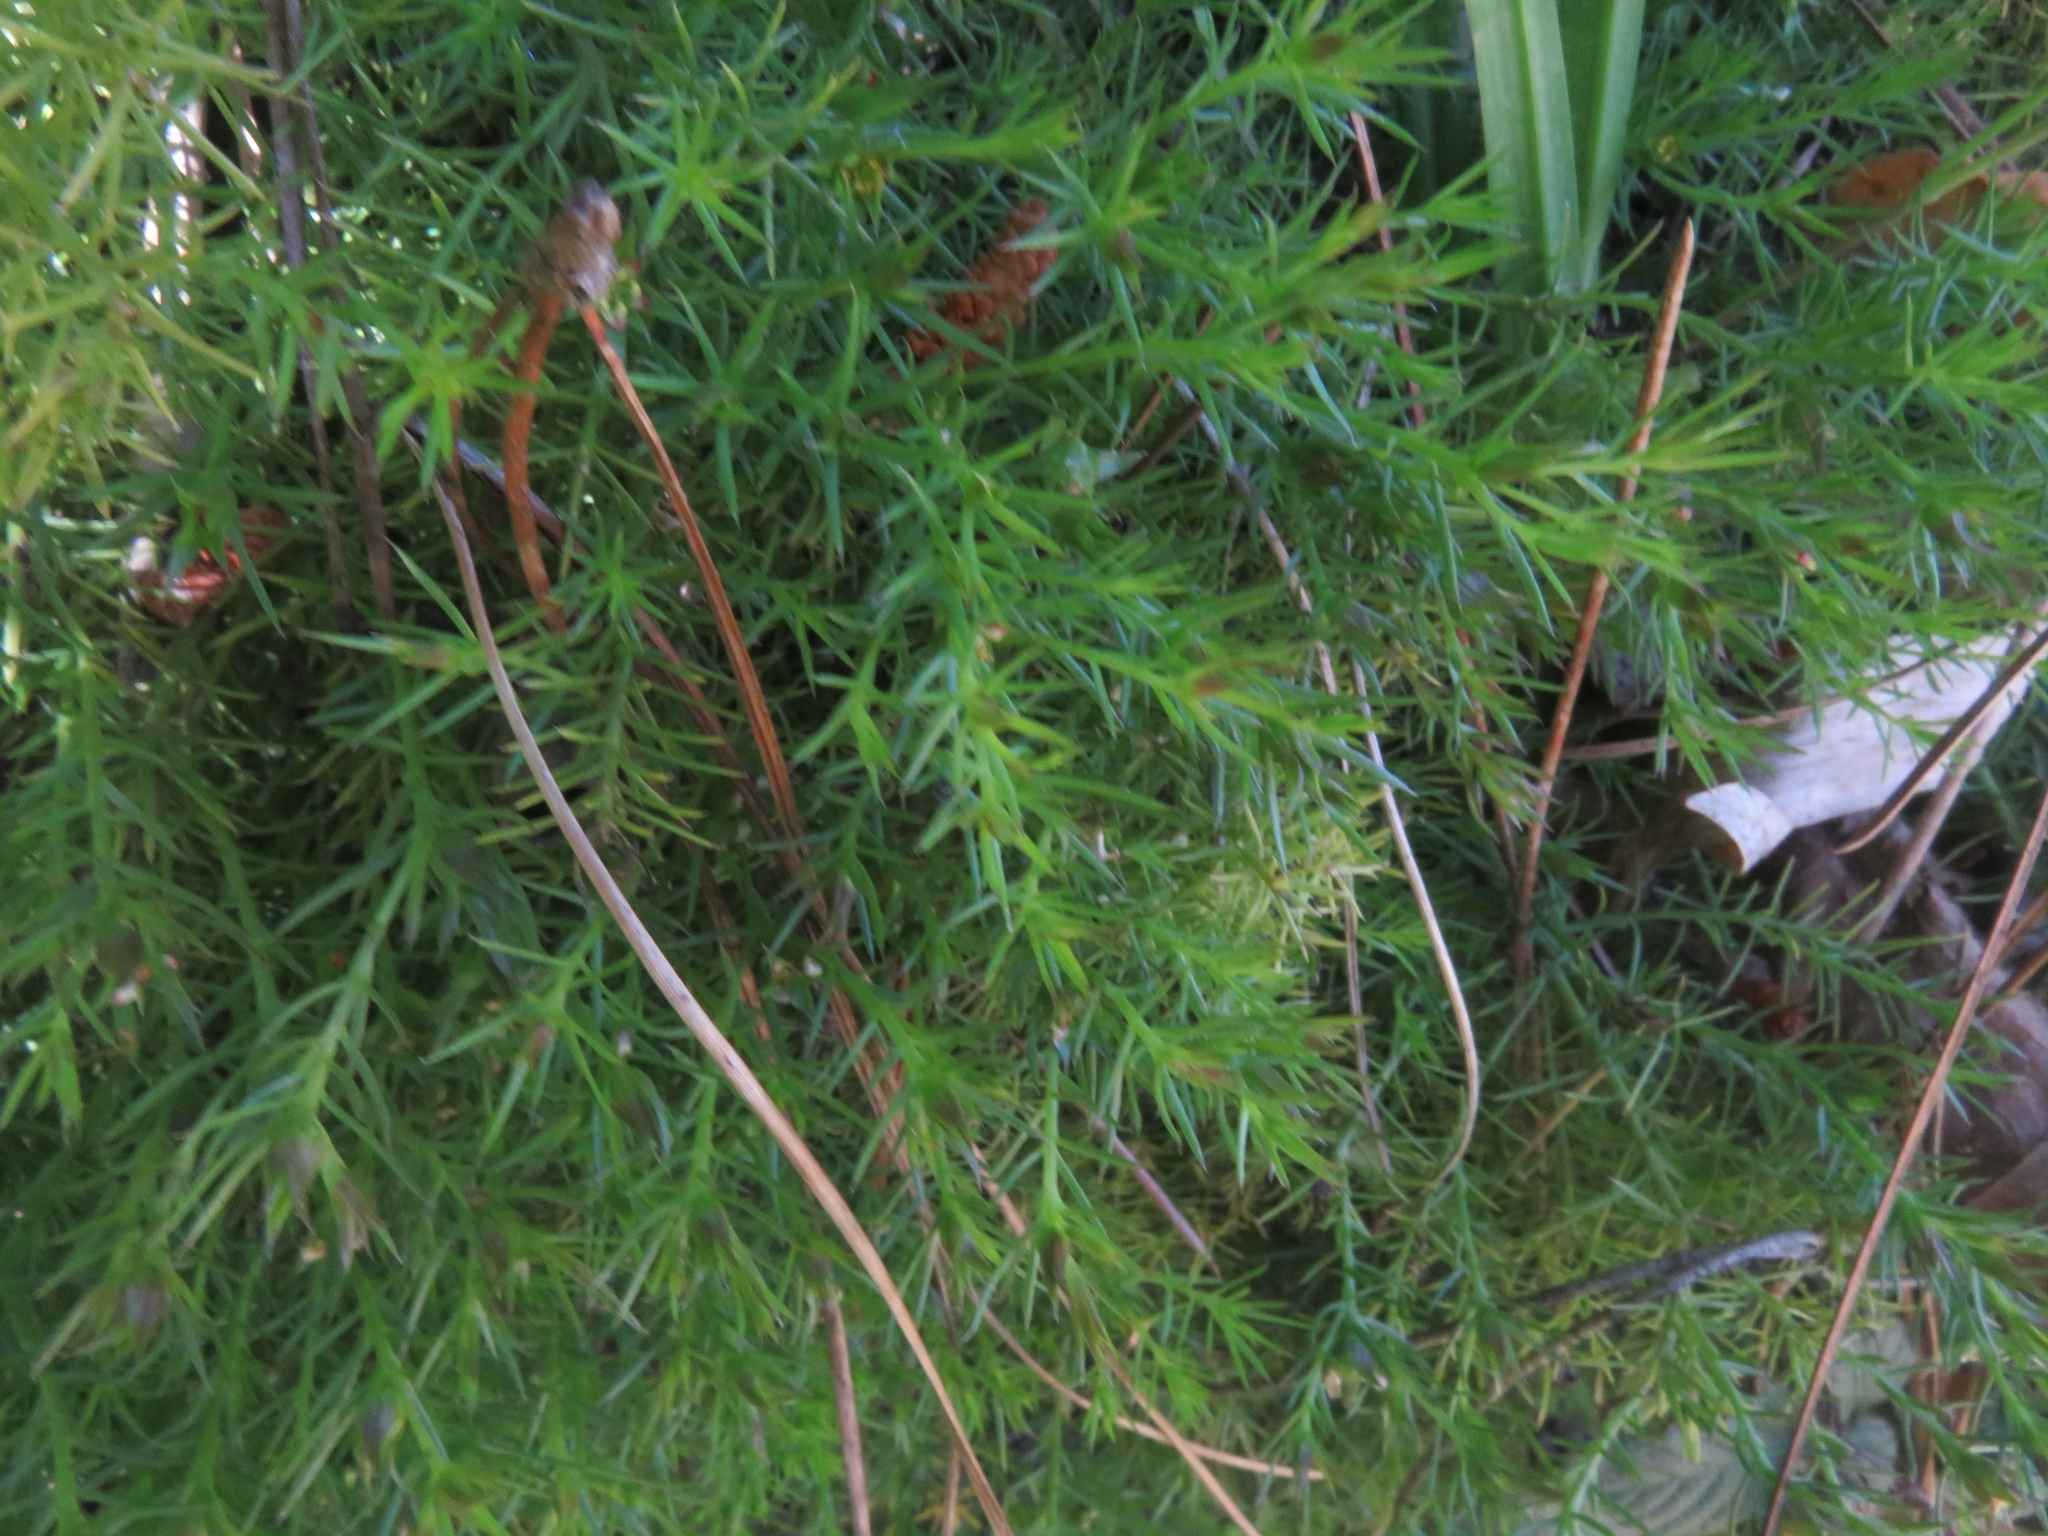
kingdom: Plantae
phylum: Tracheophyta
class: Magnoliopsida
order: Malpighiales
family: Linaceae
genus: Cliococca
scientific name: Cliococca selaginoides
